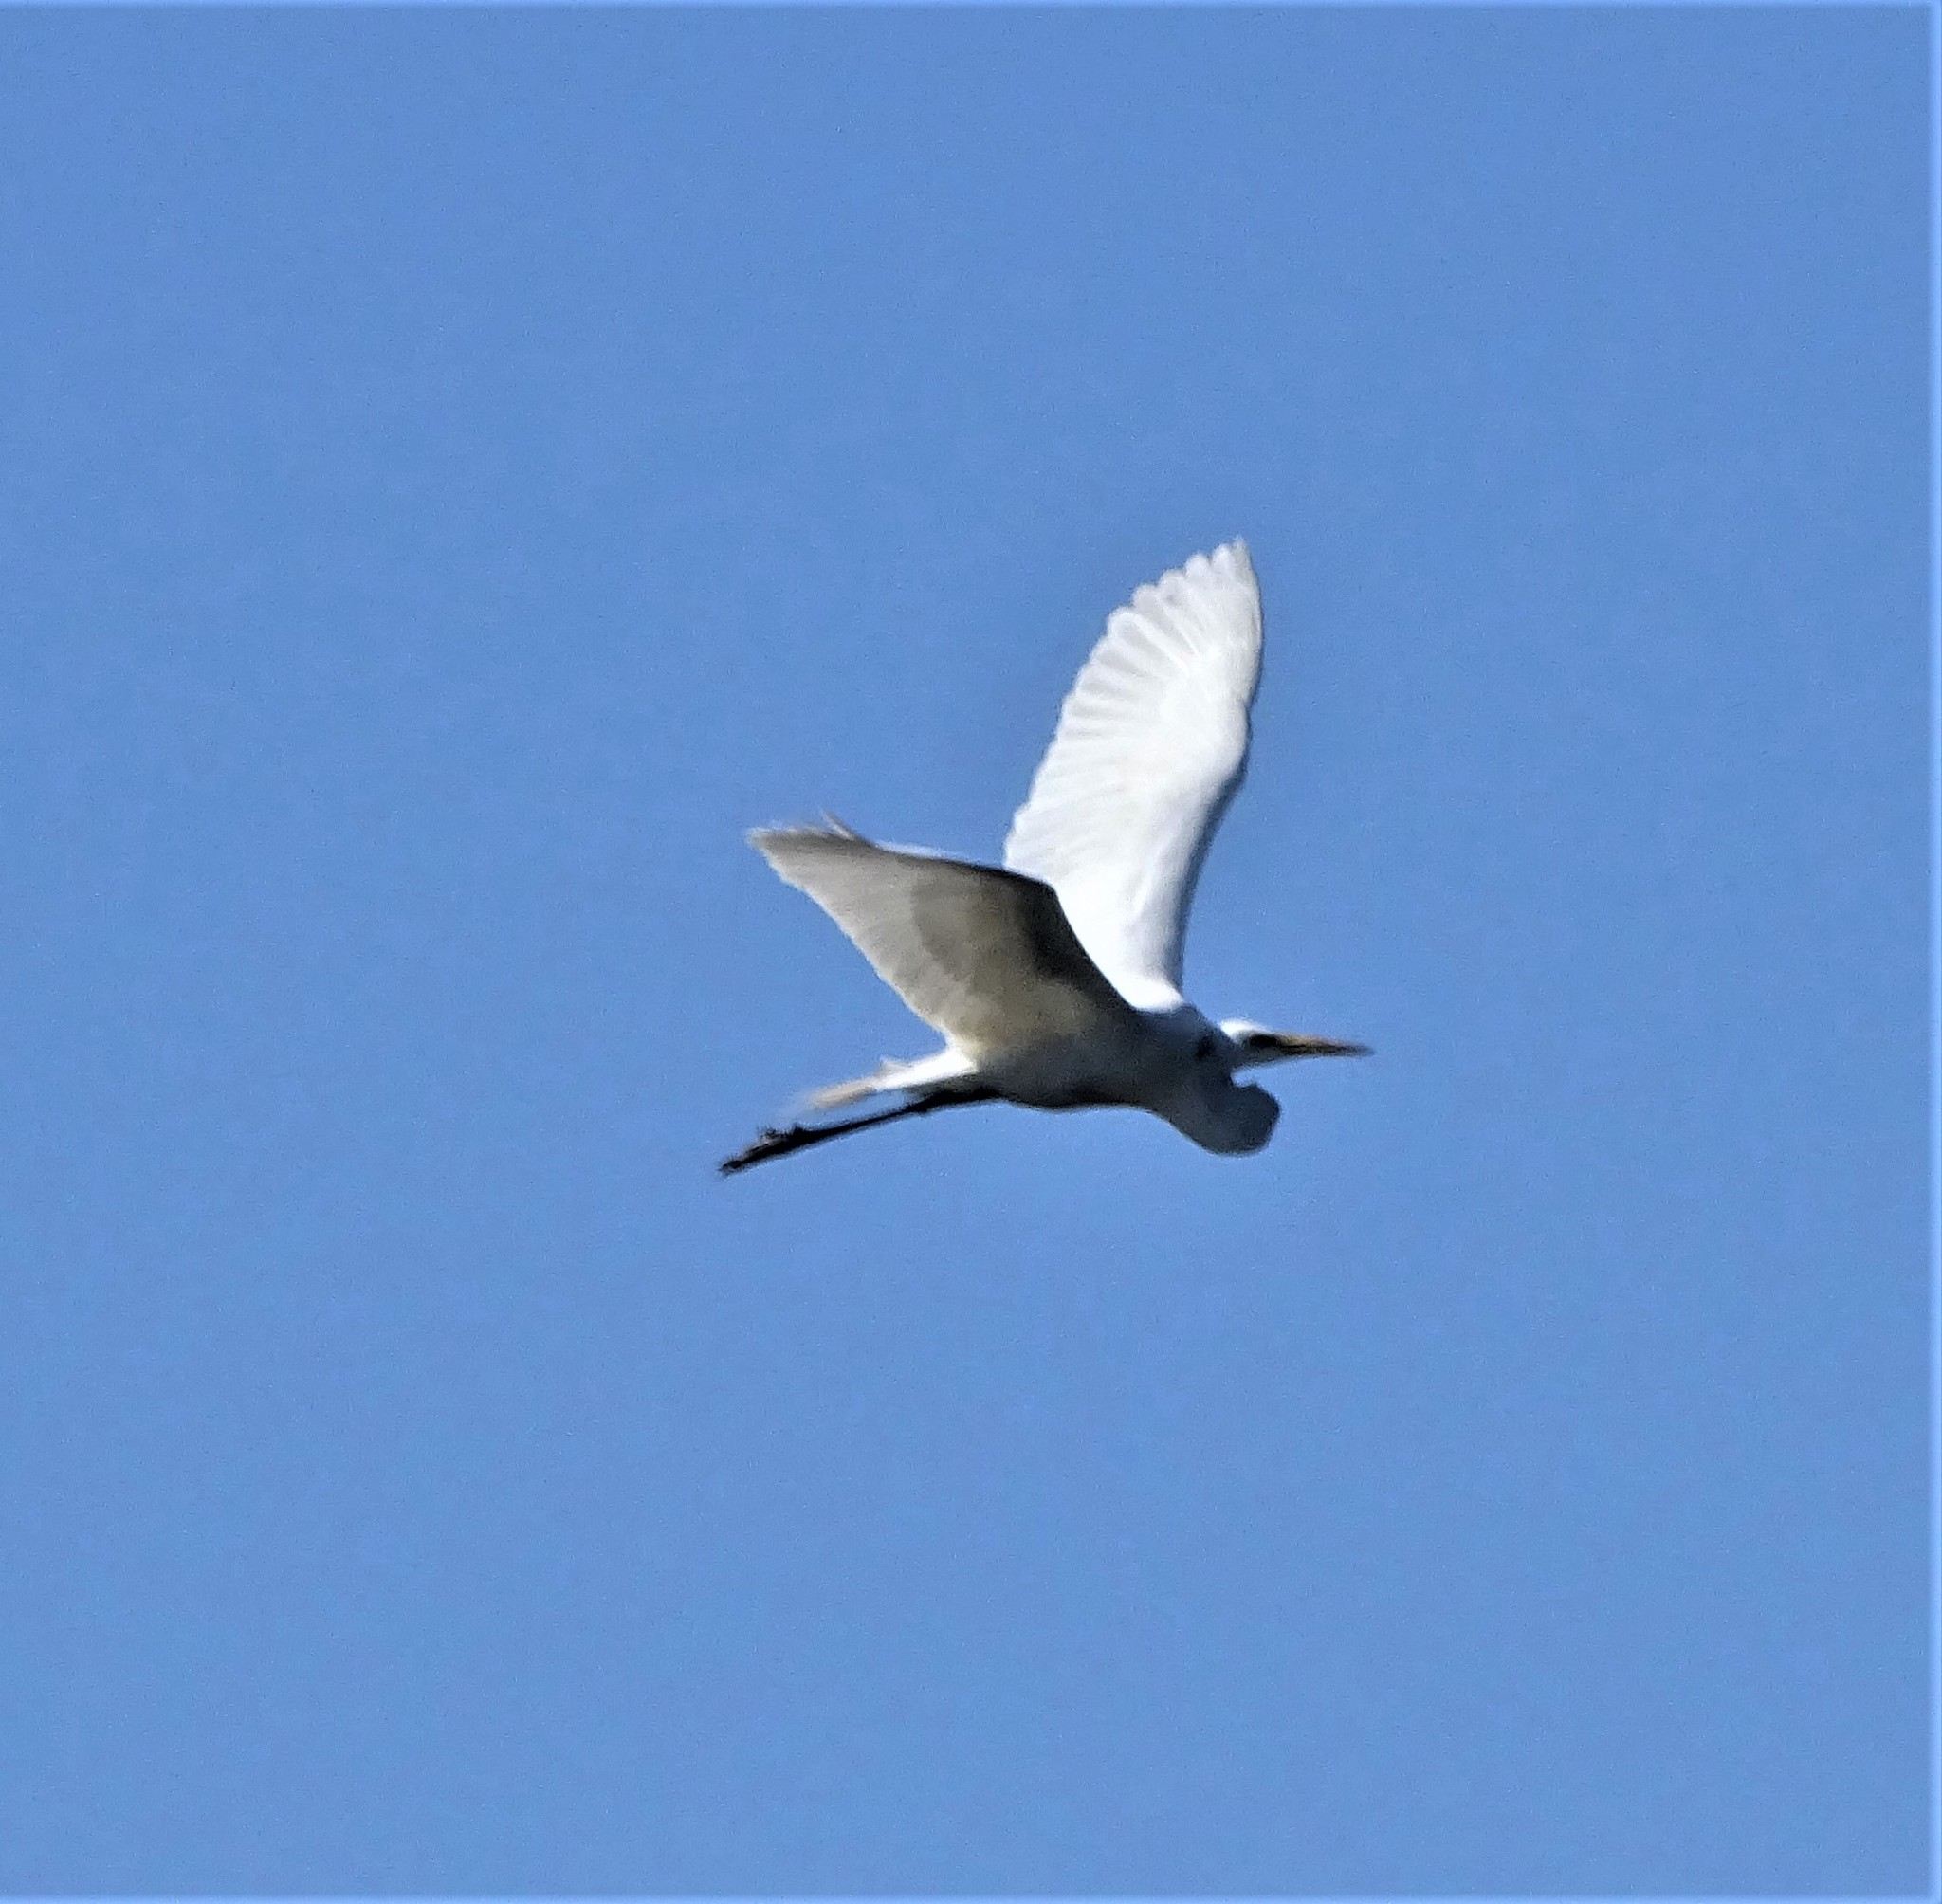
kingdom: Animalia
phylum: Chordata
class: Aves
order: Pelecaniformes
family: Ardeidae
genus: Ardea
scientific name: Ardea alba
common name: Great egret
